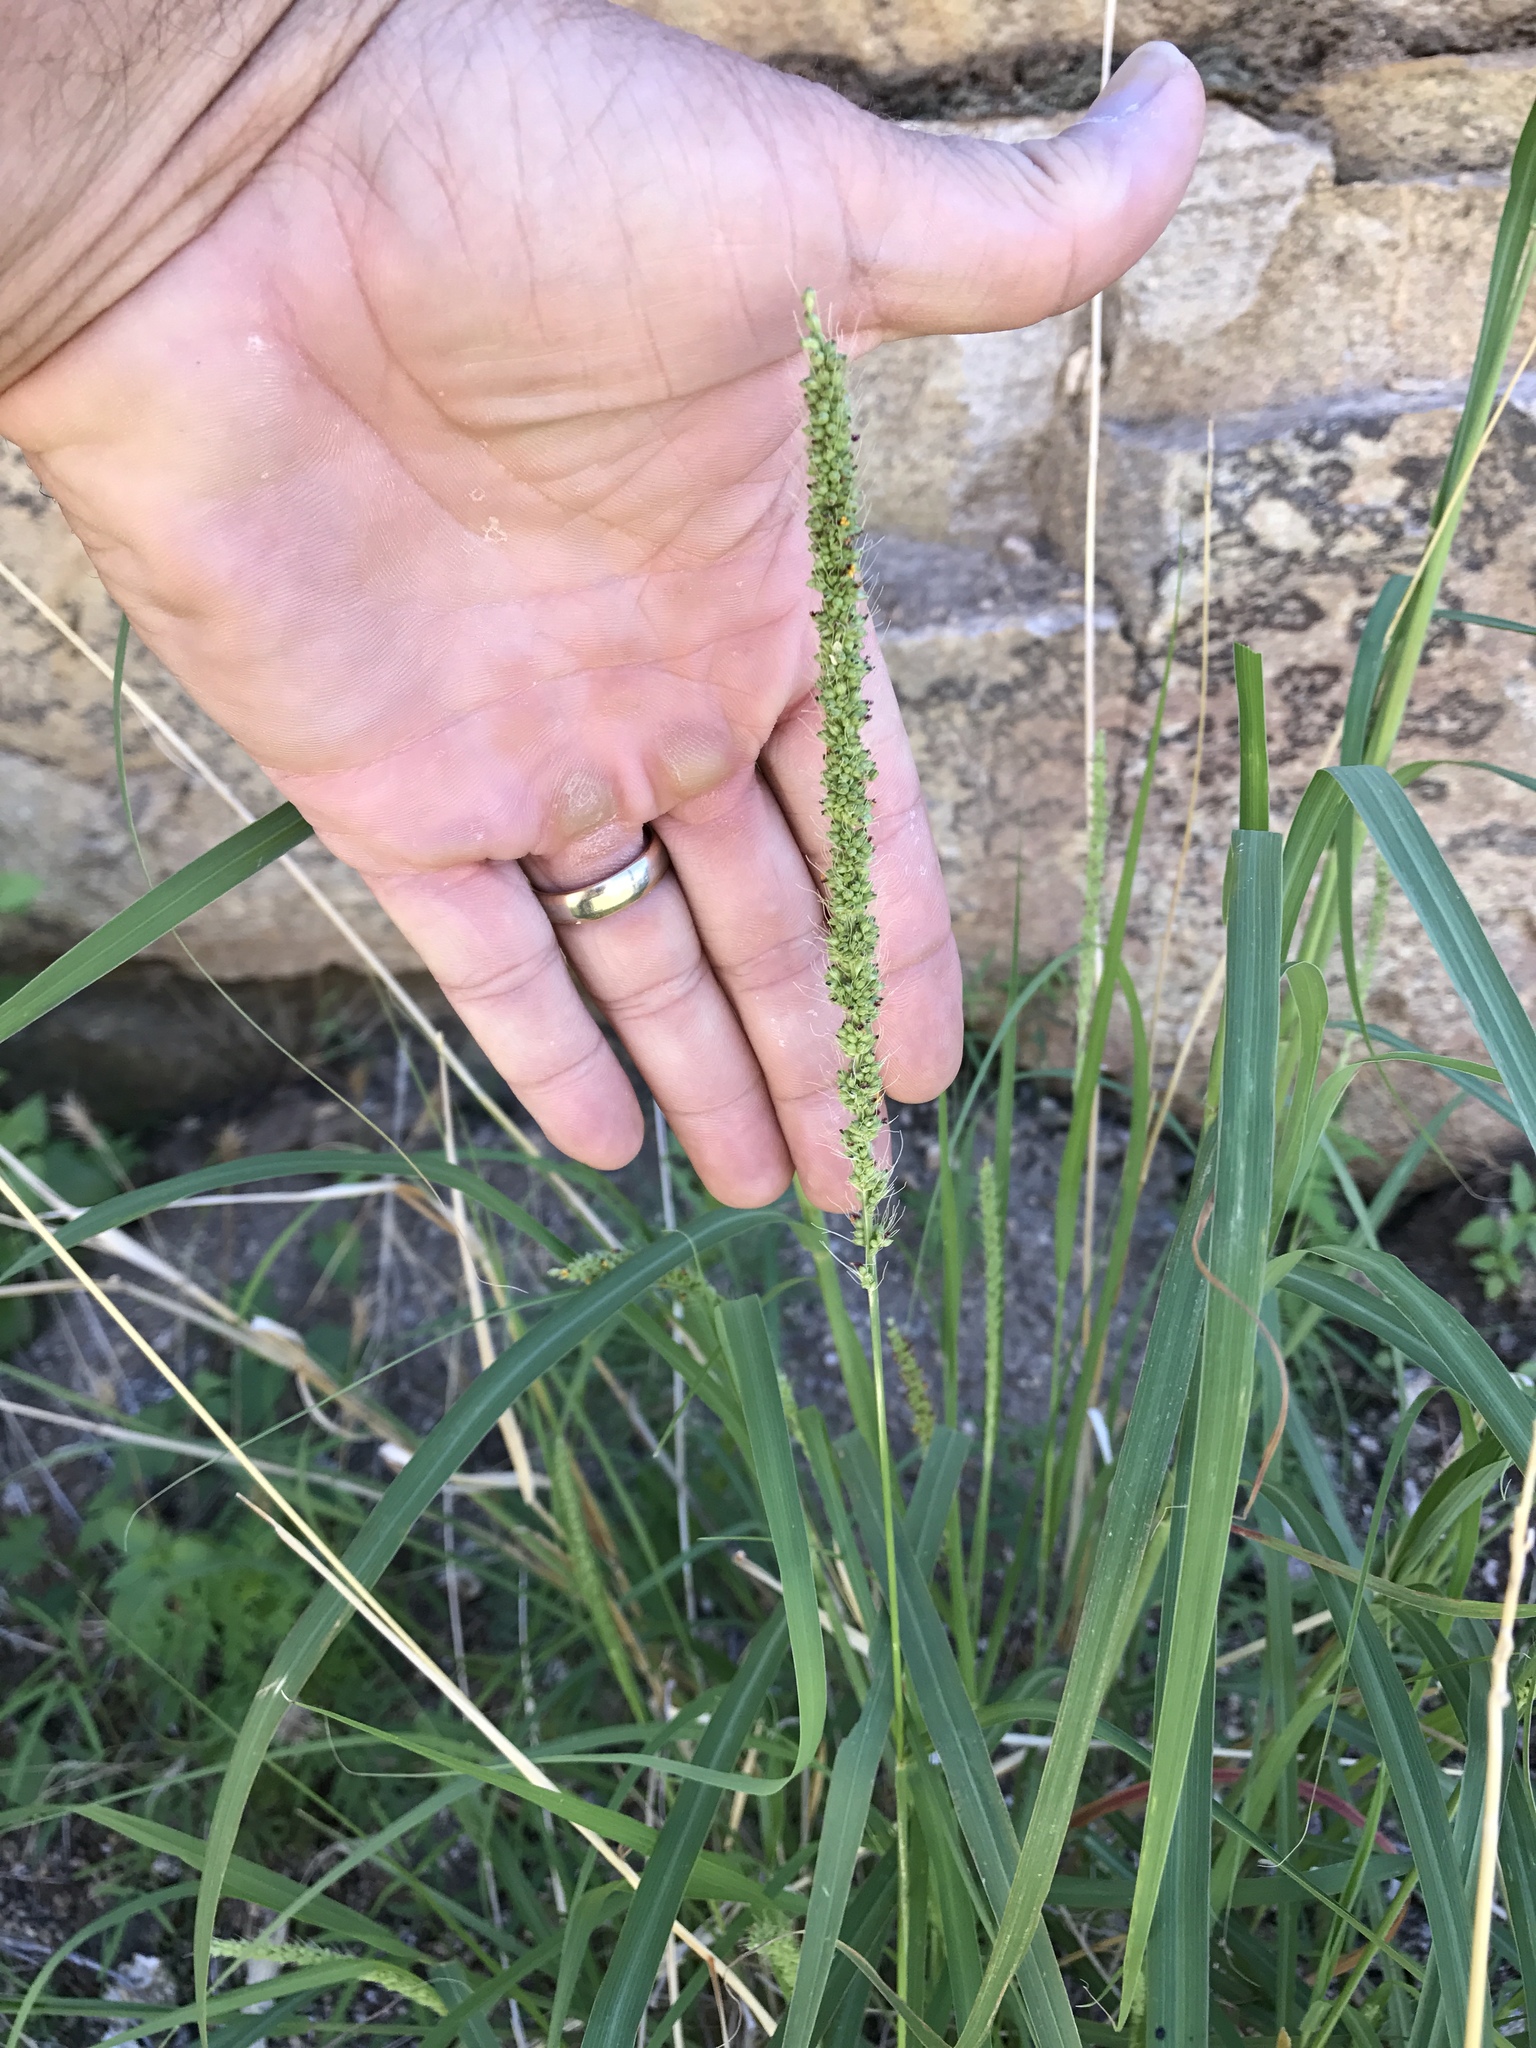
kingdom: Plantae
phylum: Tracheophyta
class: Liliopsida
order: Poales
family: Poaceae
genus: Setaria
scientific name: Setaria leucopila
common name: Plains bristle grass
